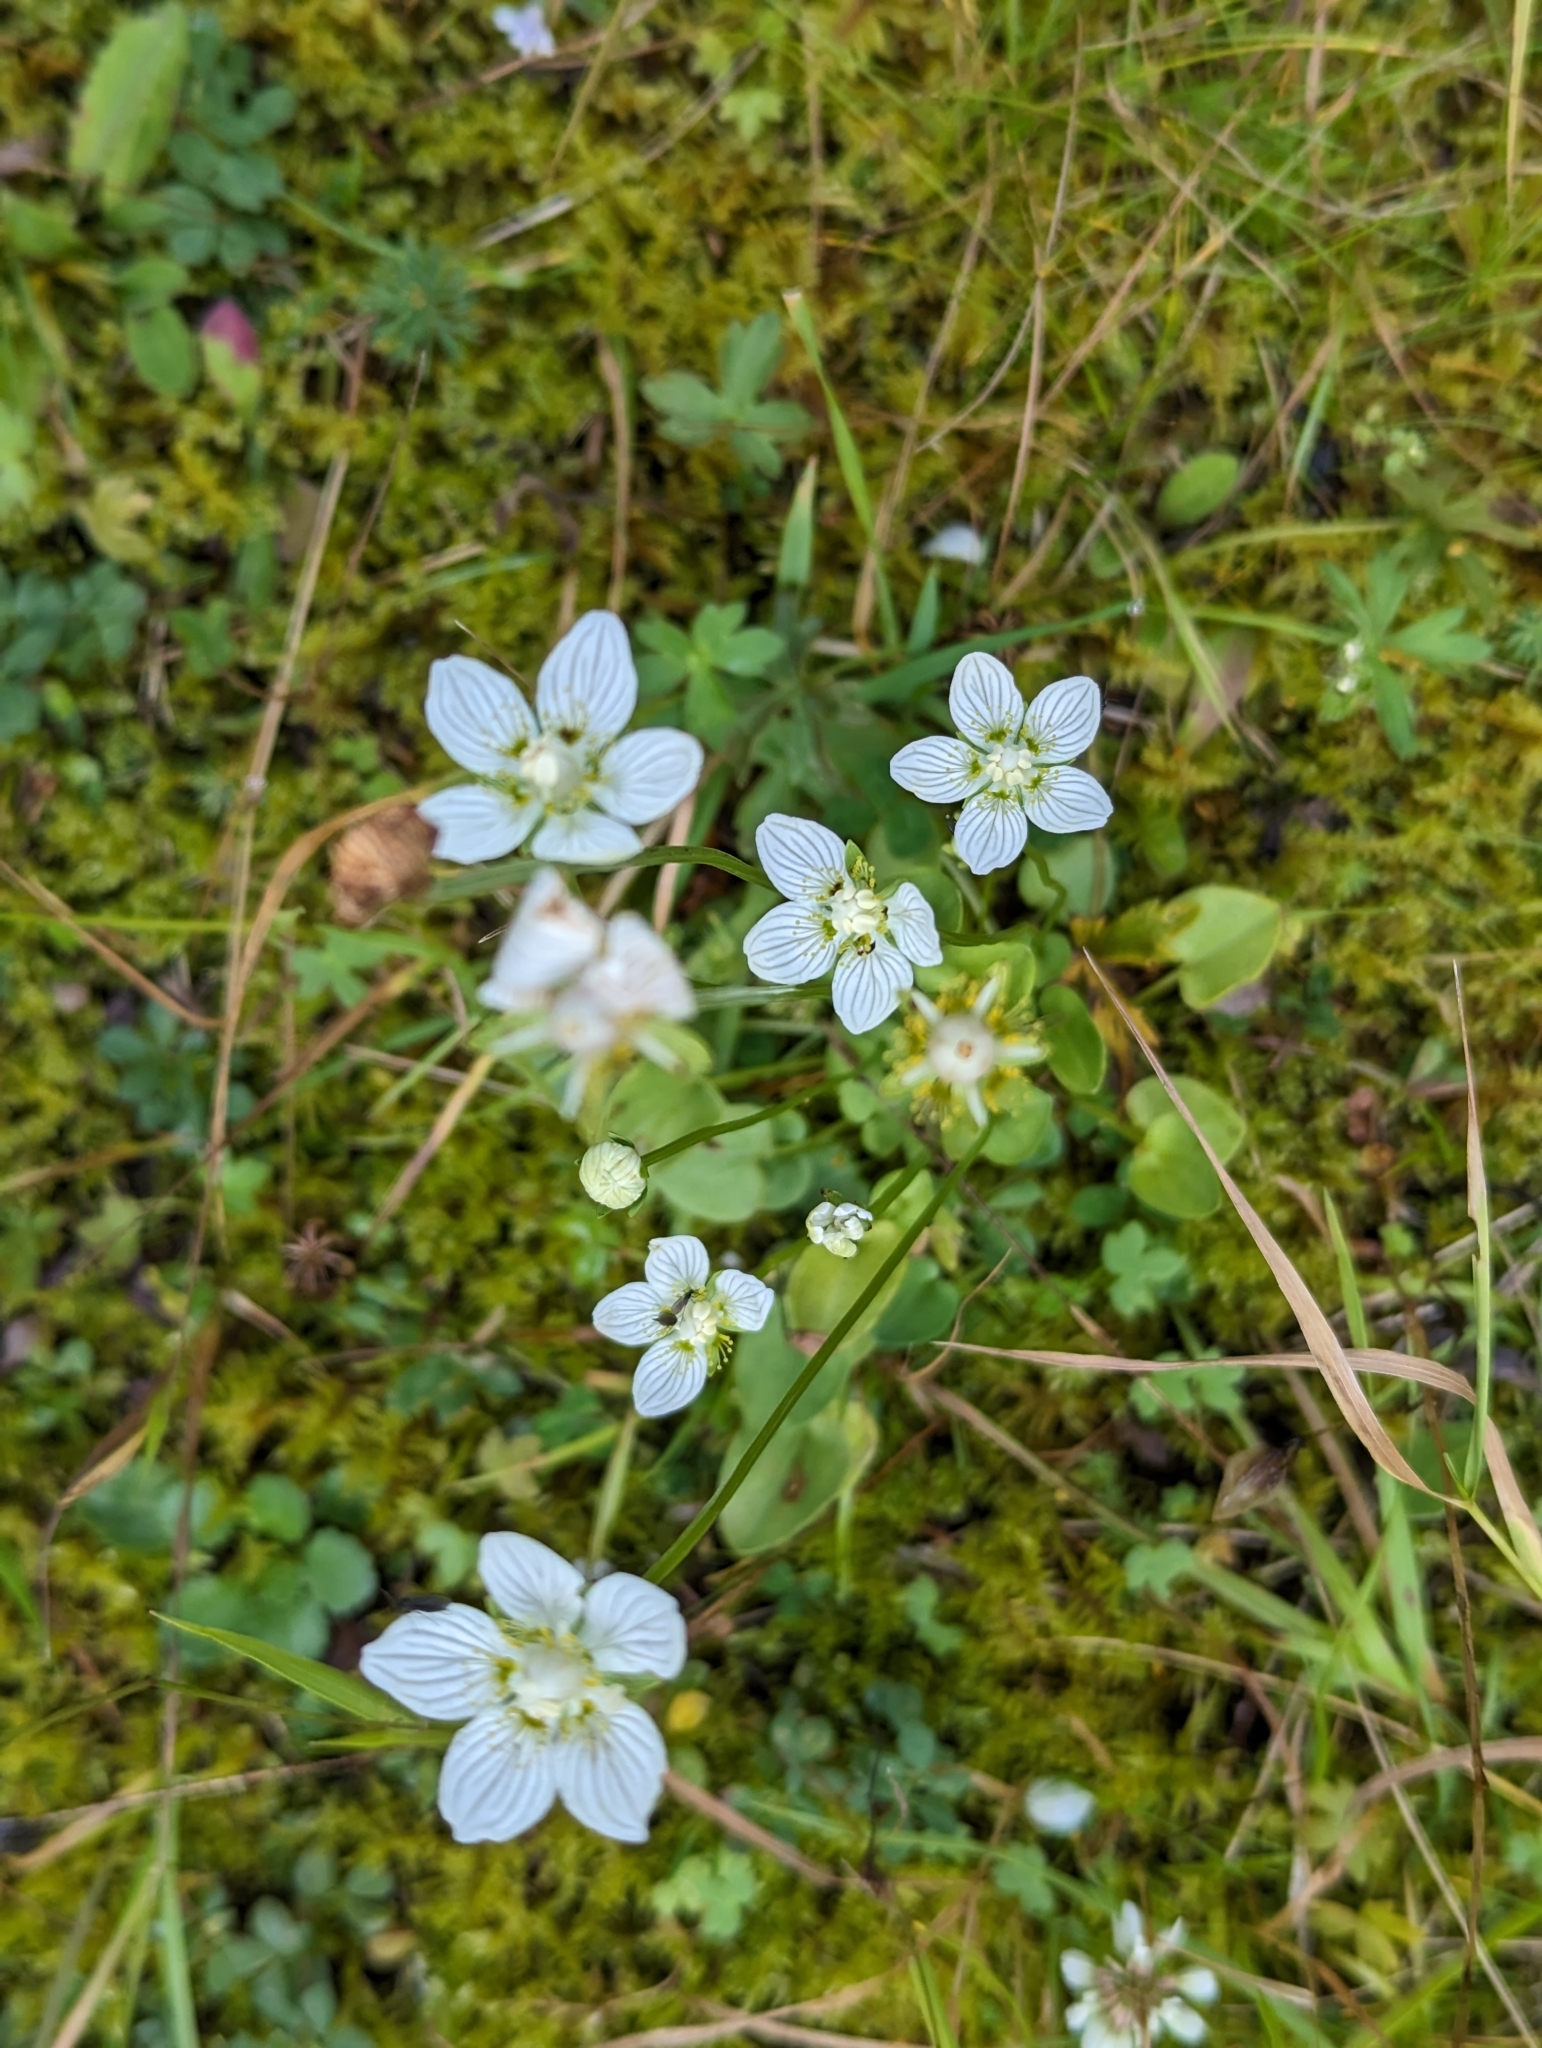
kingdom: Plantae
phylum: Tracheophyta
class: Magnoliopsida
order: Celastrales
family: Parnassiaceae
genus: Parnassia
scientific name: Parnassia palustris
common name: Grass-of-parnassus
